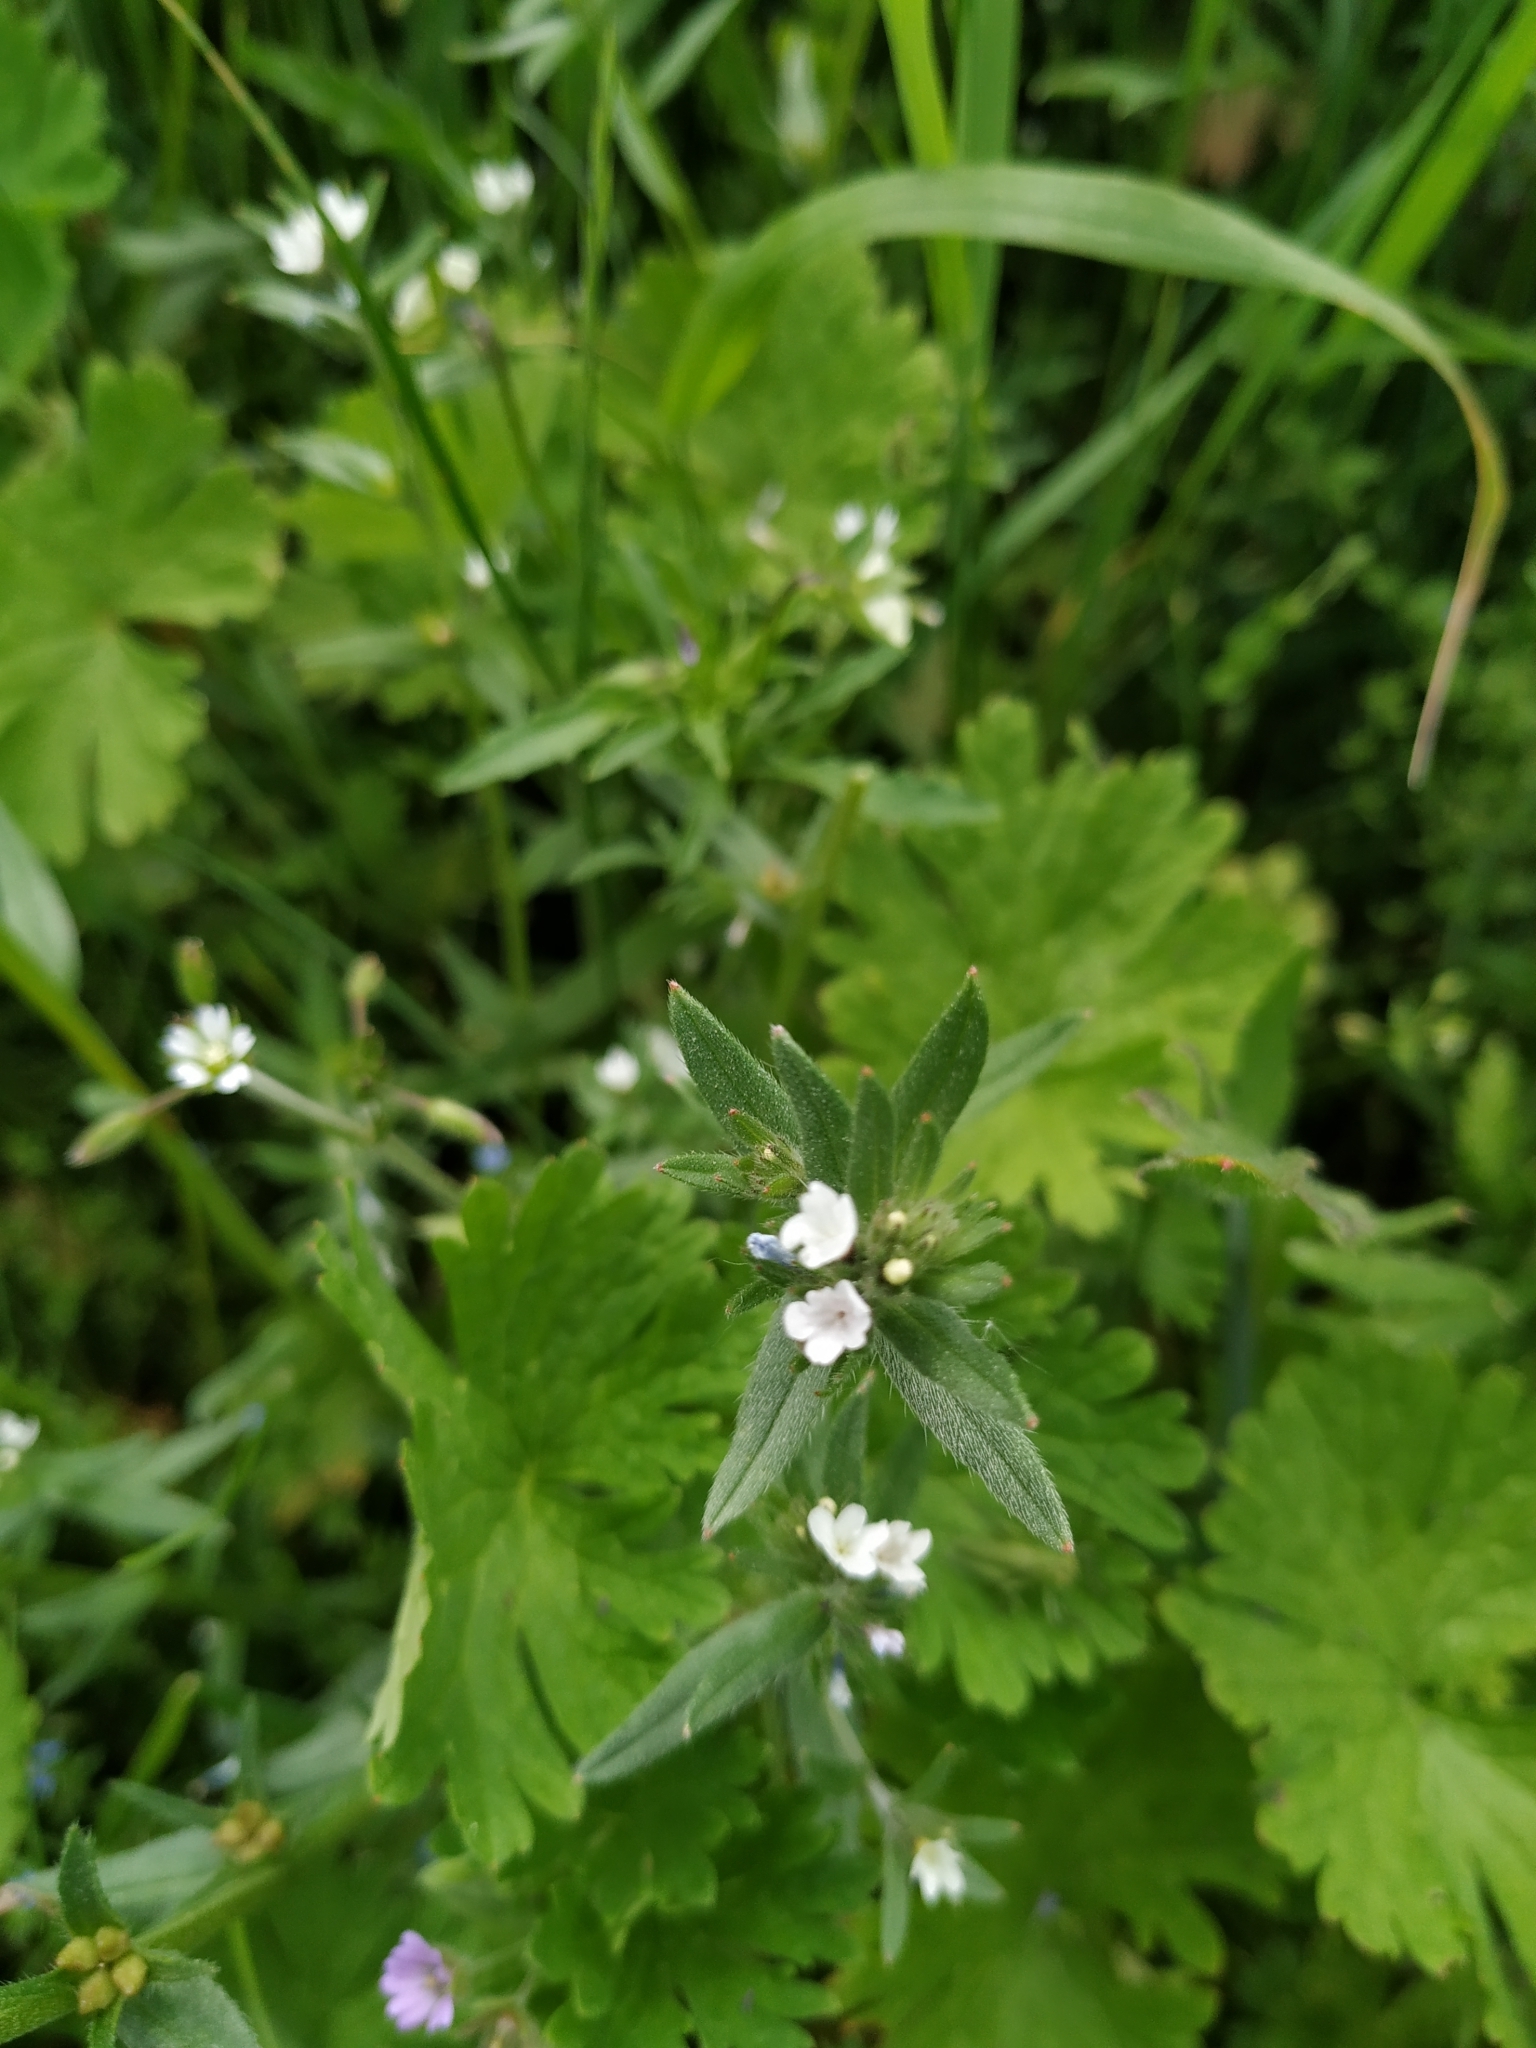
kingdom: Plantae
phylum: Tracheophyta
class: Magnoliopsida
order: Boraginales
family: Boraginaceae
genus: Buglossoides
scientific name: Buglossoides arvensis
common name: Corn gromwell
